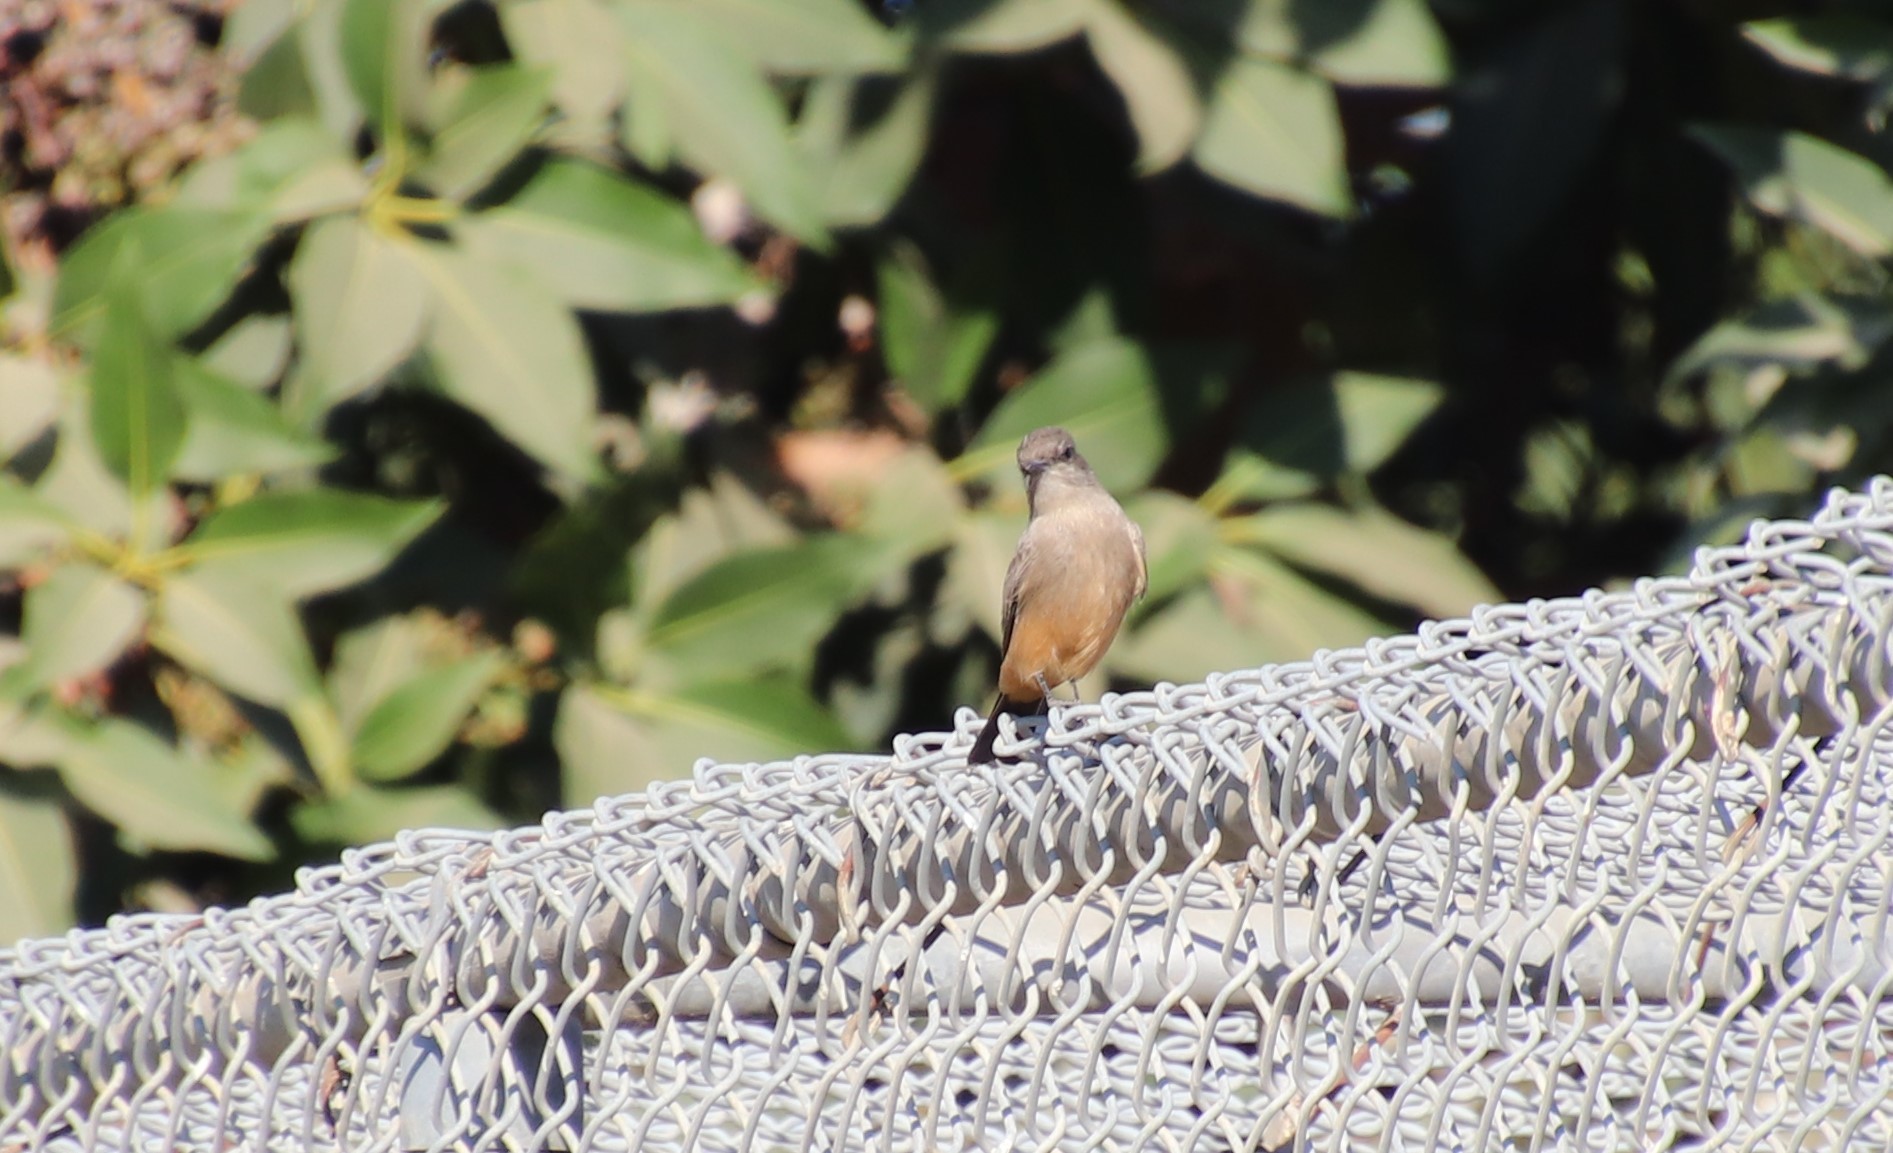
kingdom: Animalia
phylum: Chordata
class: Aves
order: Passeriformes
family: Tyrannidae
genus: Sayornis
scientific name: Sayornis saya
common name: Say's phoebe
